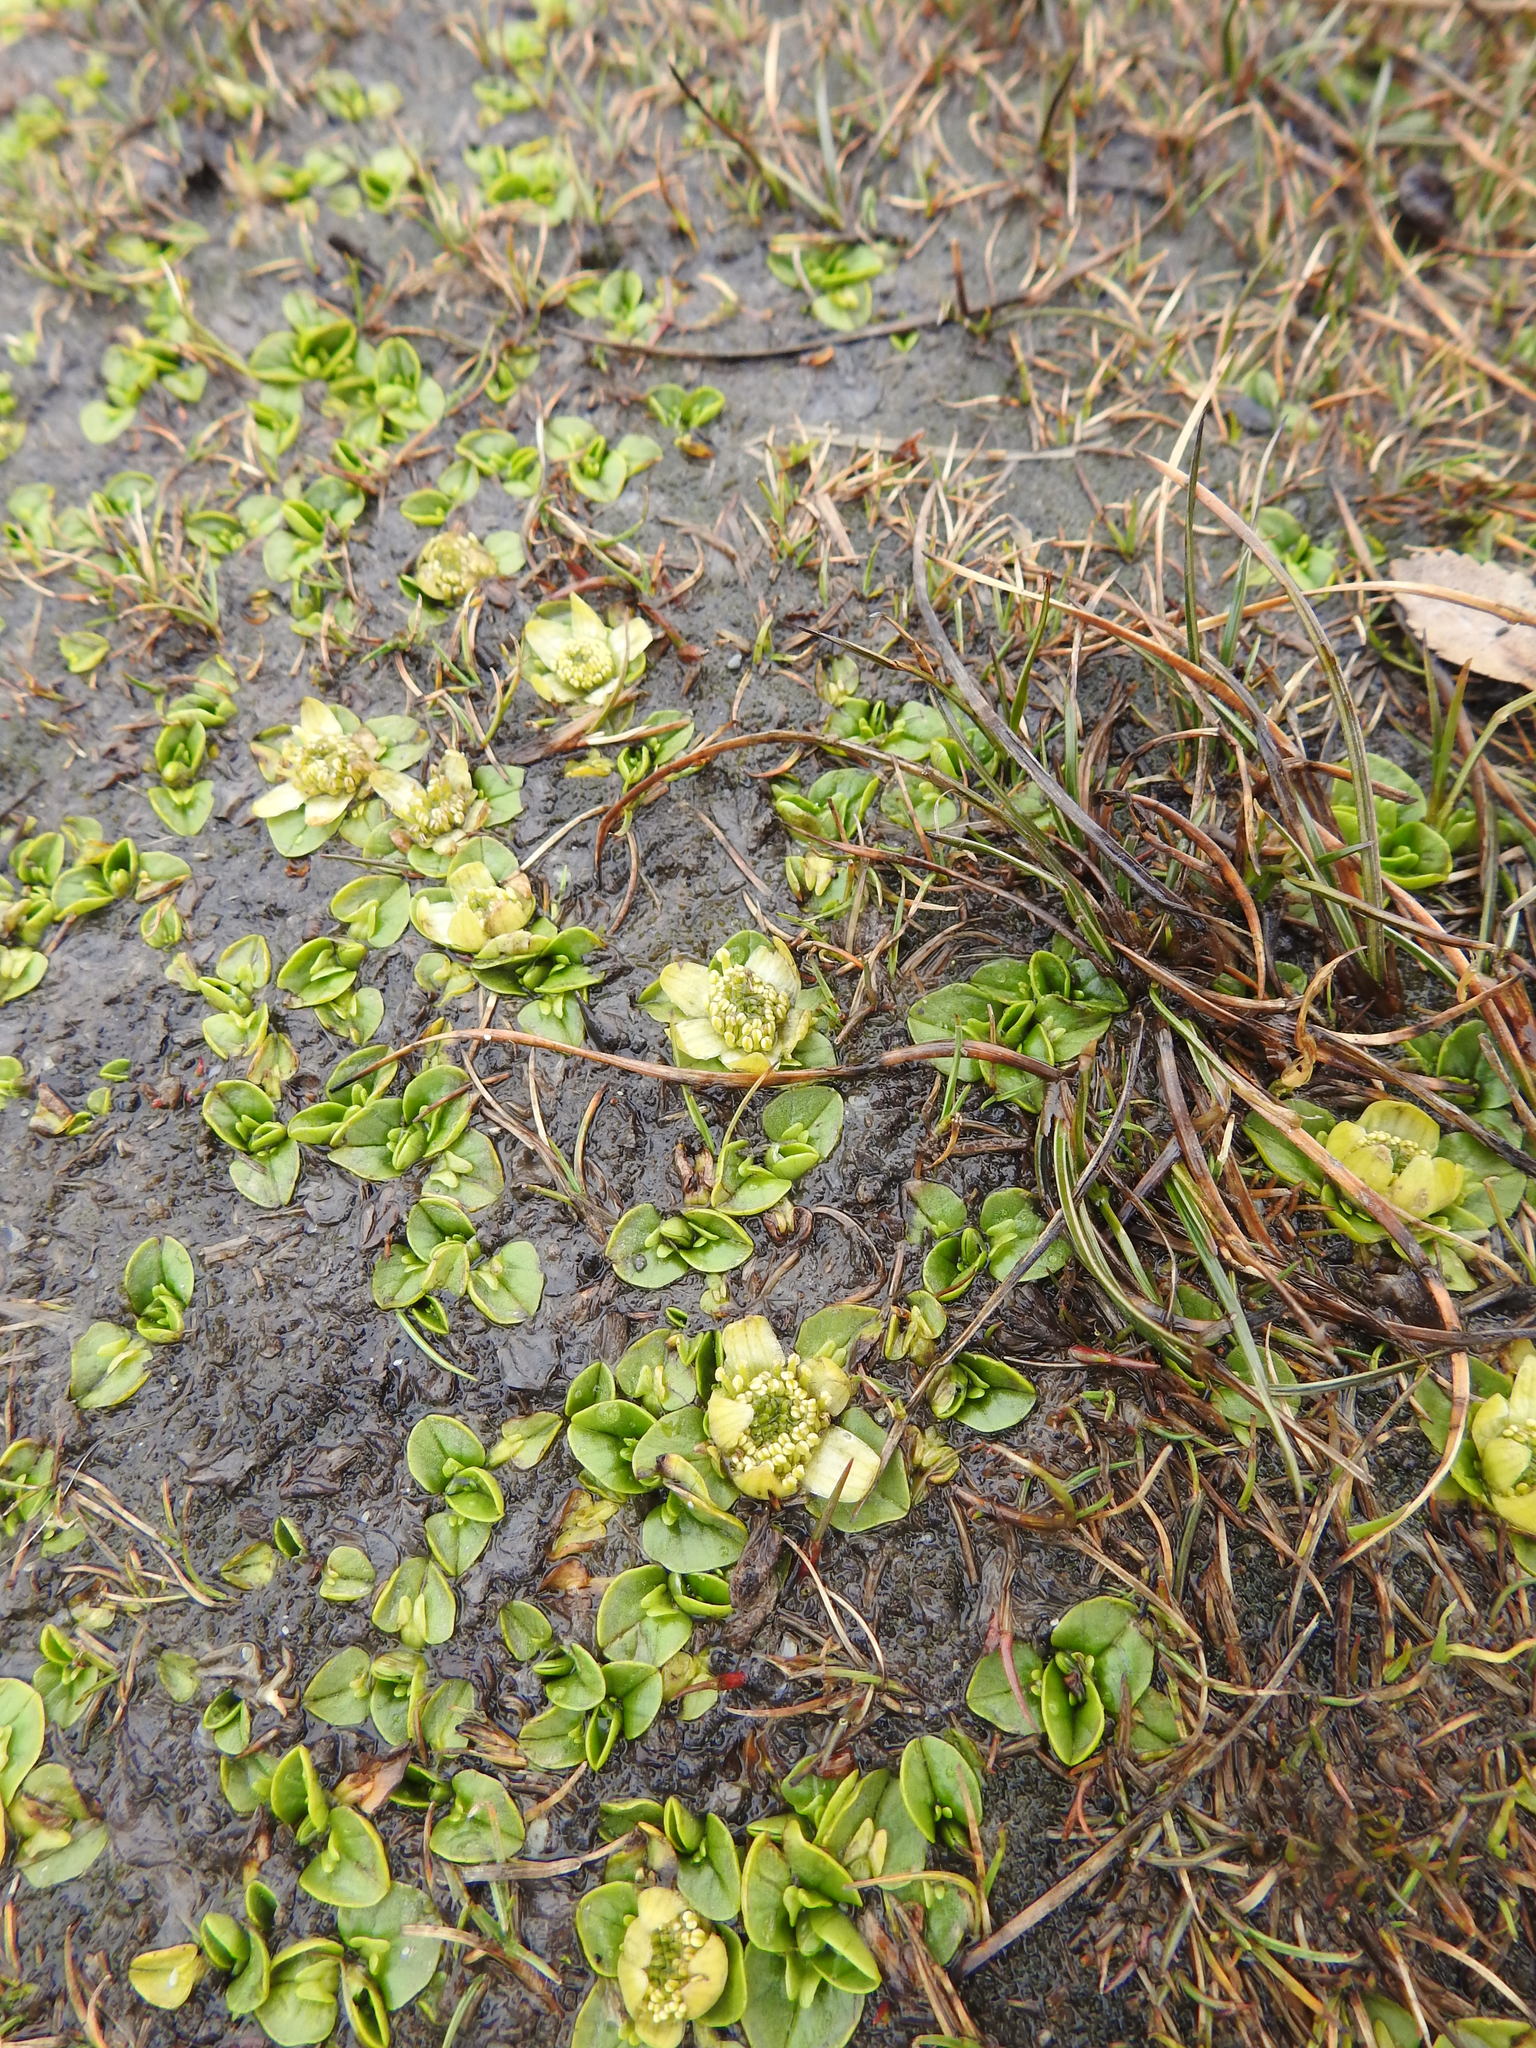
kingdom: Plantae
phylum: Tracheophyta
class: Magnoliopsida
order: Ranunculales
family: Ranunculaceae
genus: Caltha
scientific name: Caltha sagittata
